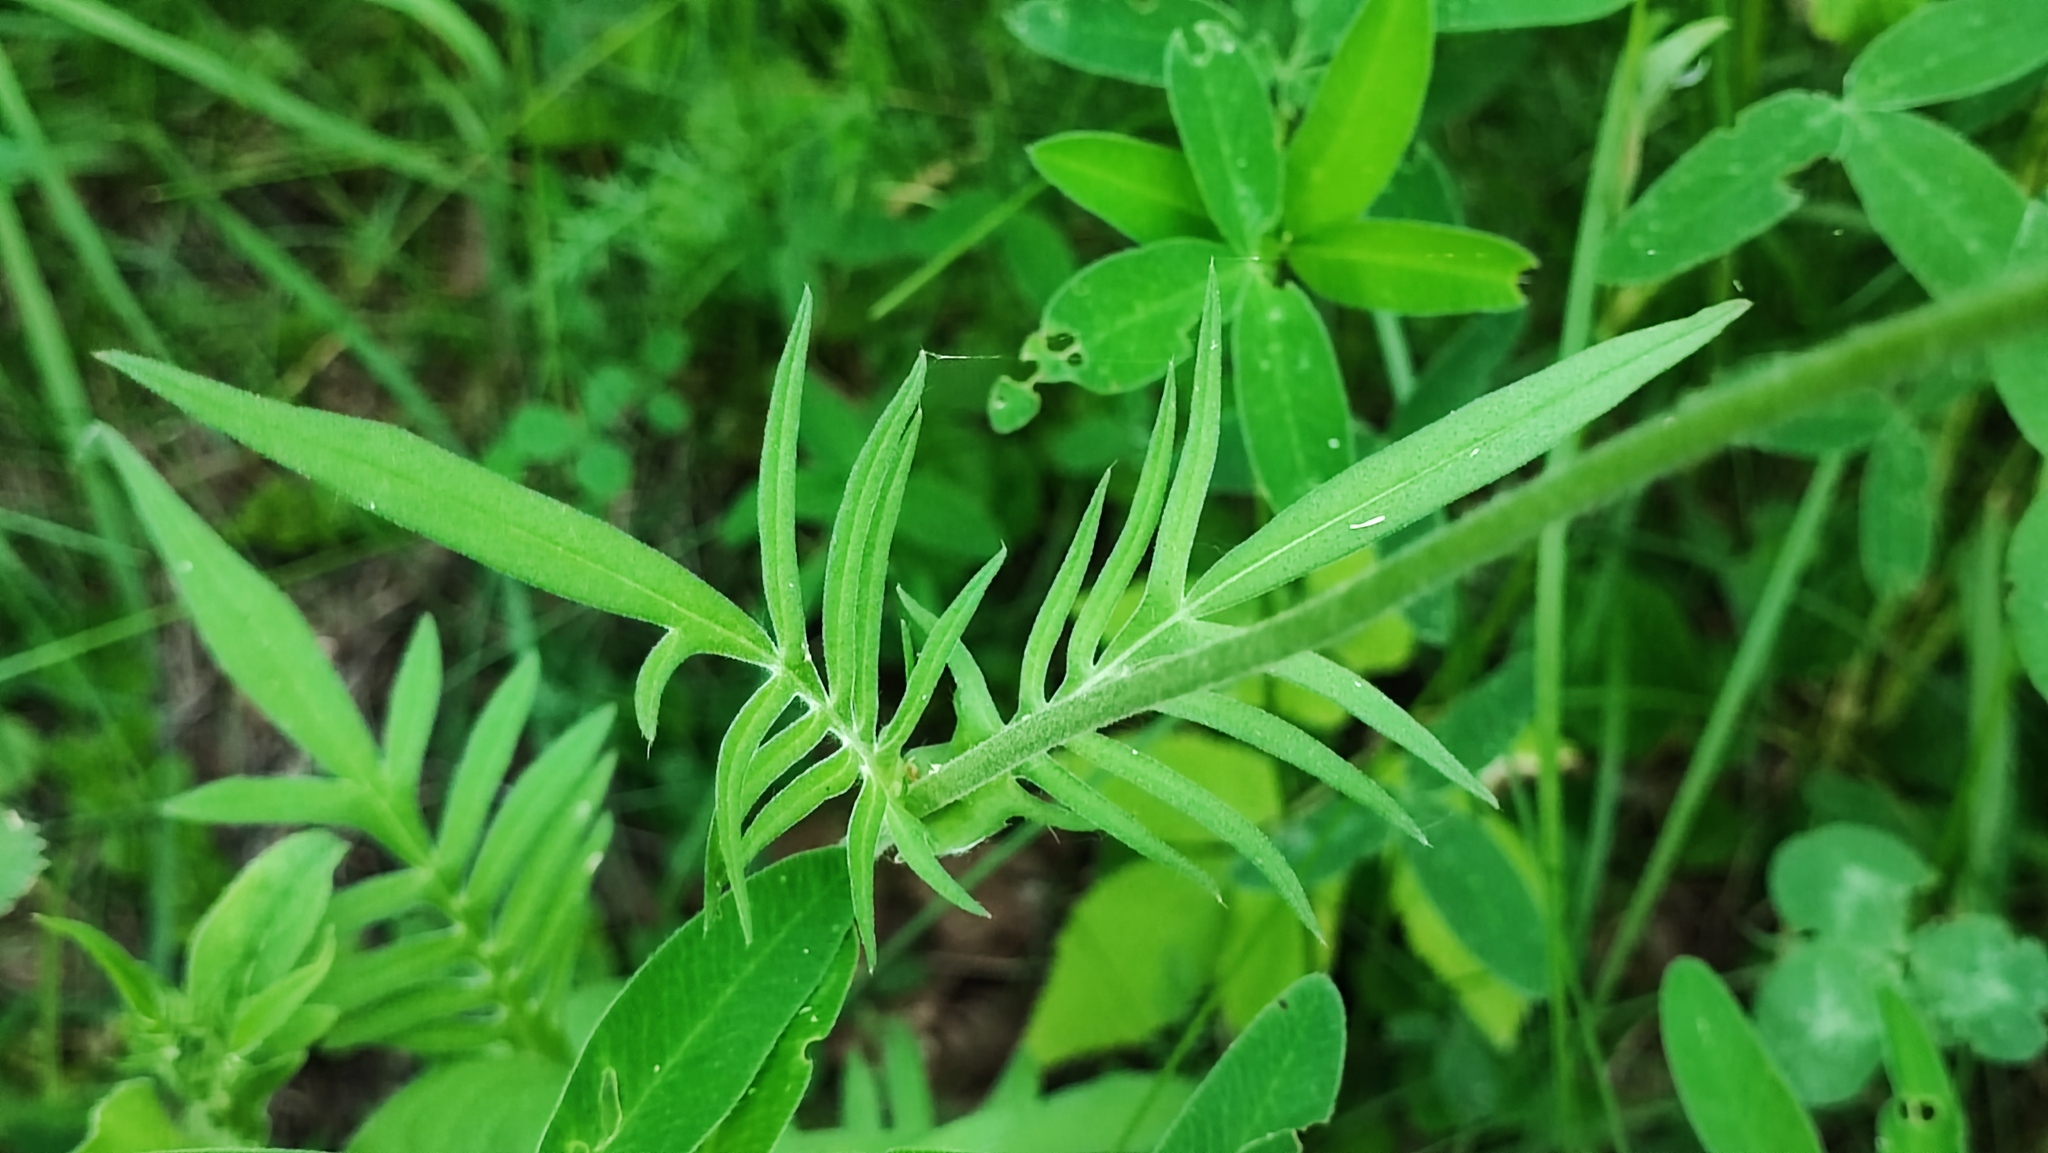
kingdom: Plantae
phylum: Tracheophyta
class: Magnoliopsida
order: Dipsacales
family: Caprifoliaceae
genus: Knautia
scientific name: Knautia arvensis
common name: Field scabiosa
